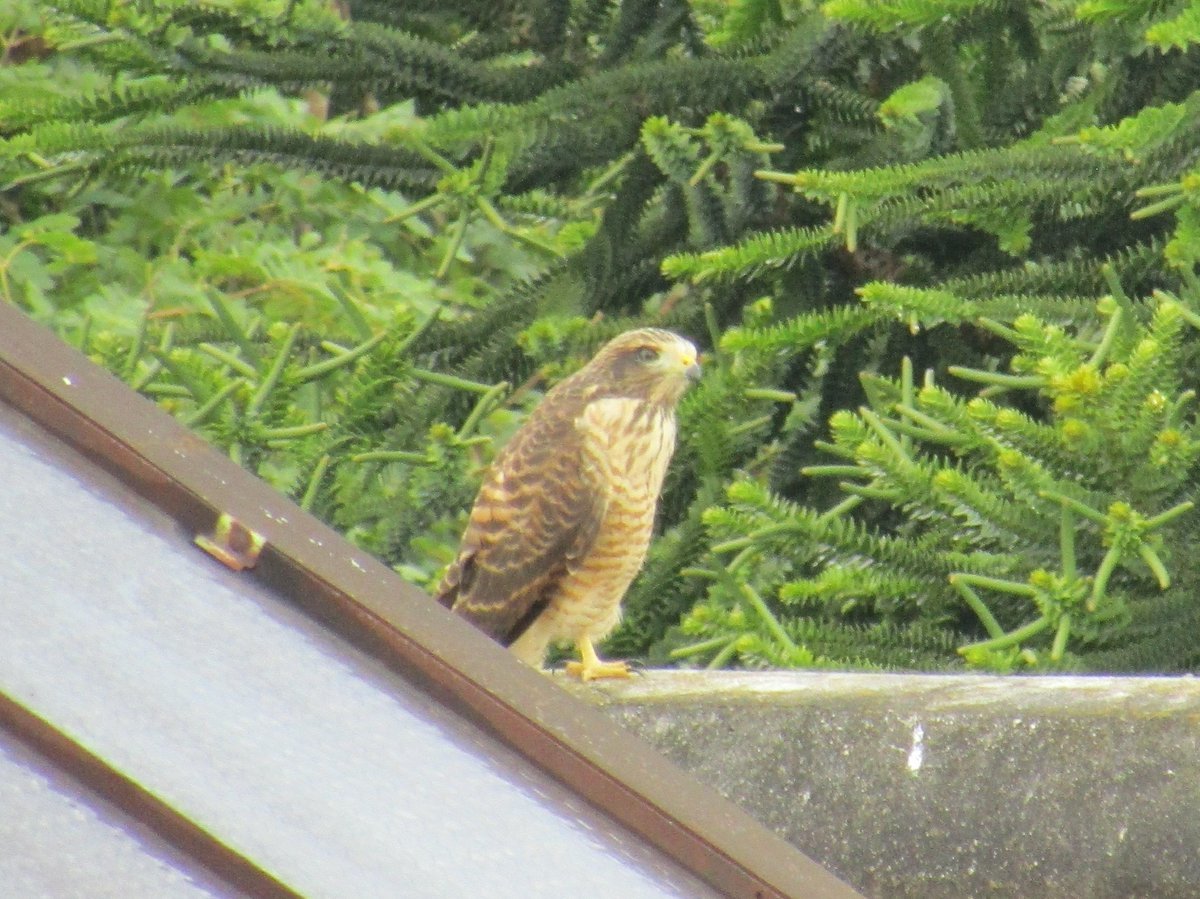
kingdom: Animalia
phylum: Chordata
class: Aves
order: Accipitriformes
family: Accipitridae
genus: Rupornis
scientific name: Rupornis magnirostris
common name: Roadside hawk
